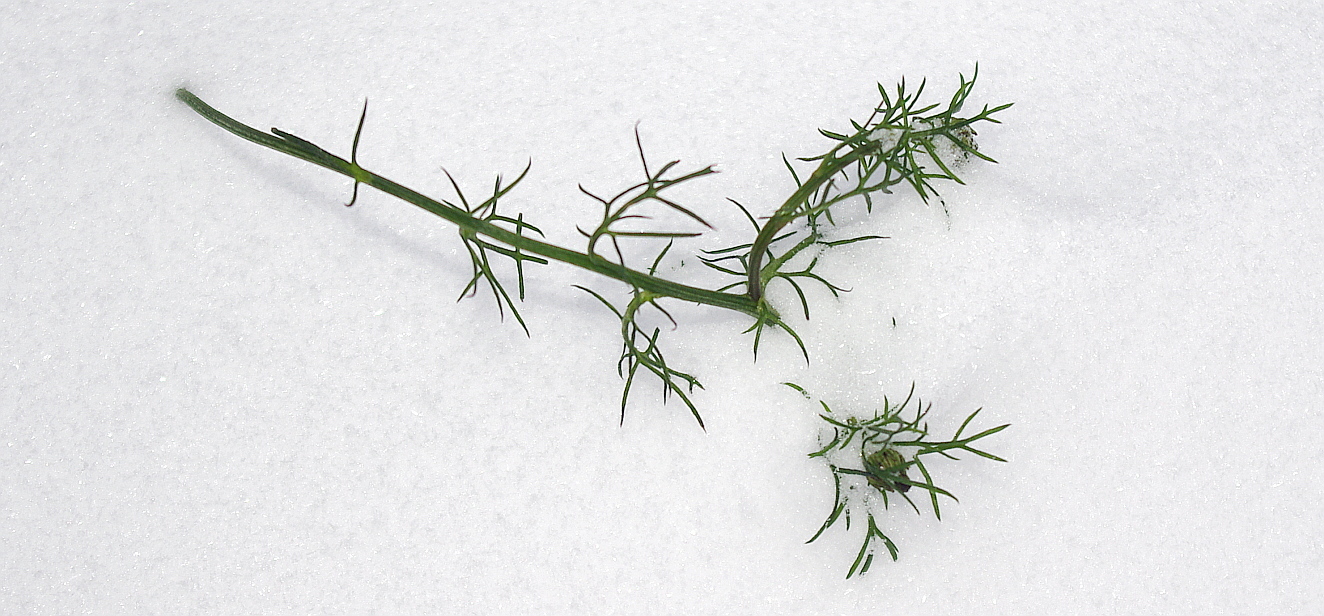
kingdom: Plantae
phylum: Tracheophyta
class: Magnoliopsida
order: Asterales
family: Asteraceae
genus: Tripleurospermum
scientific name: Tripleurospermum inodorum
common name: Scentless mayweed
